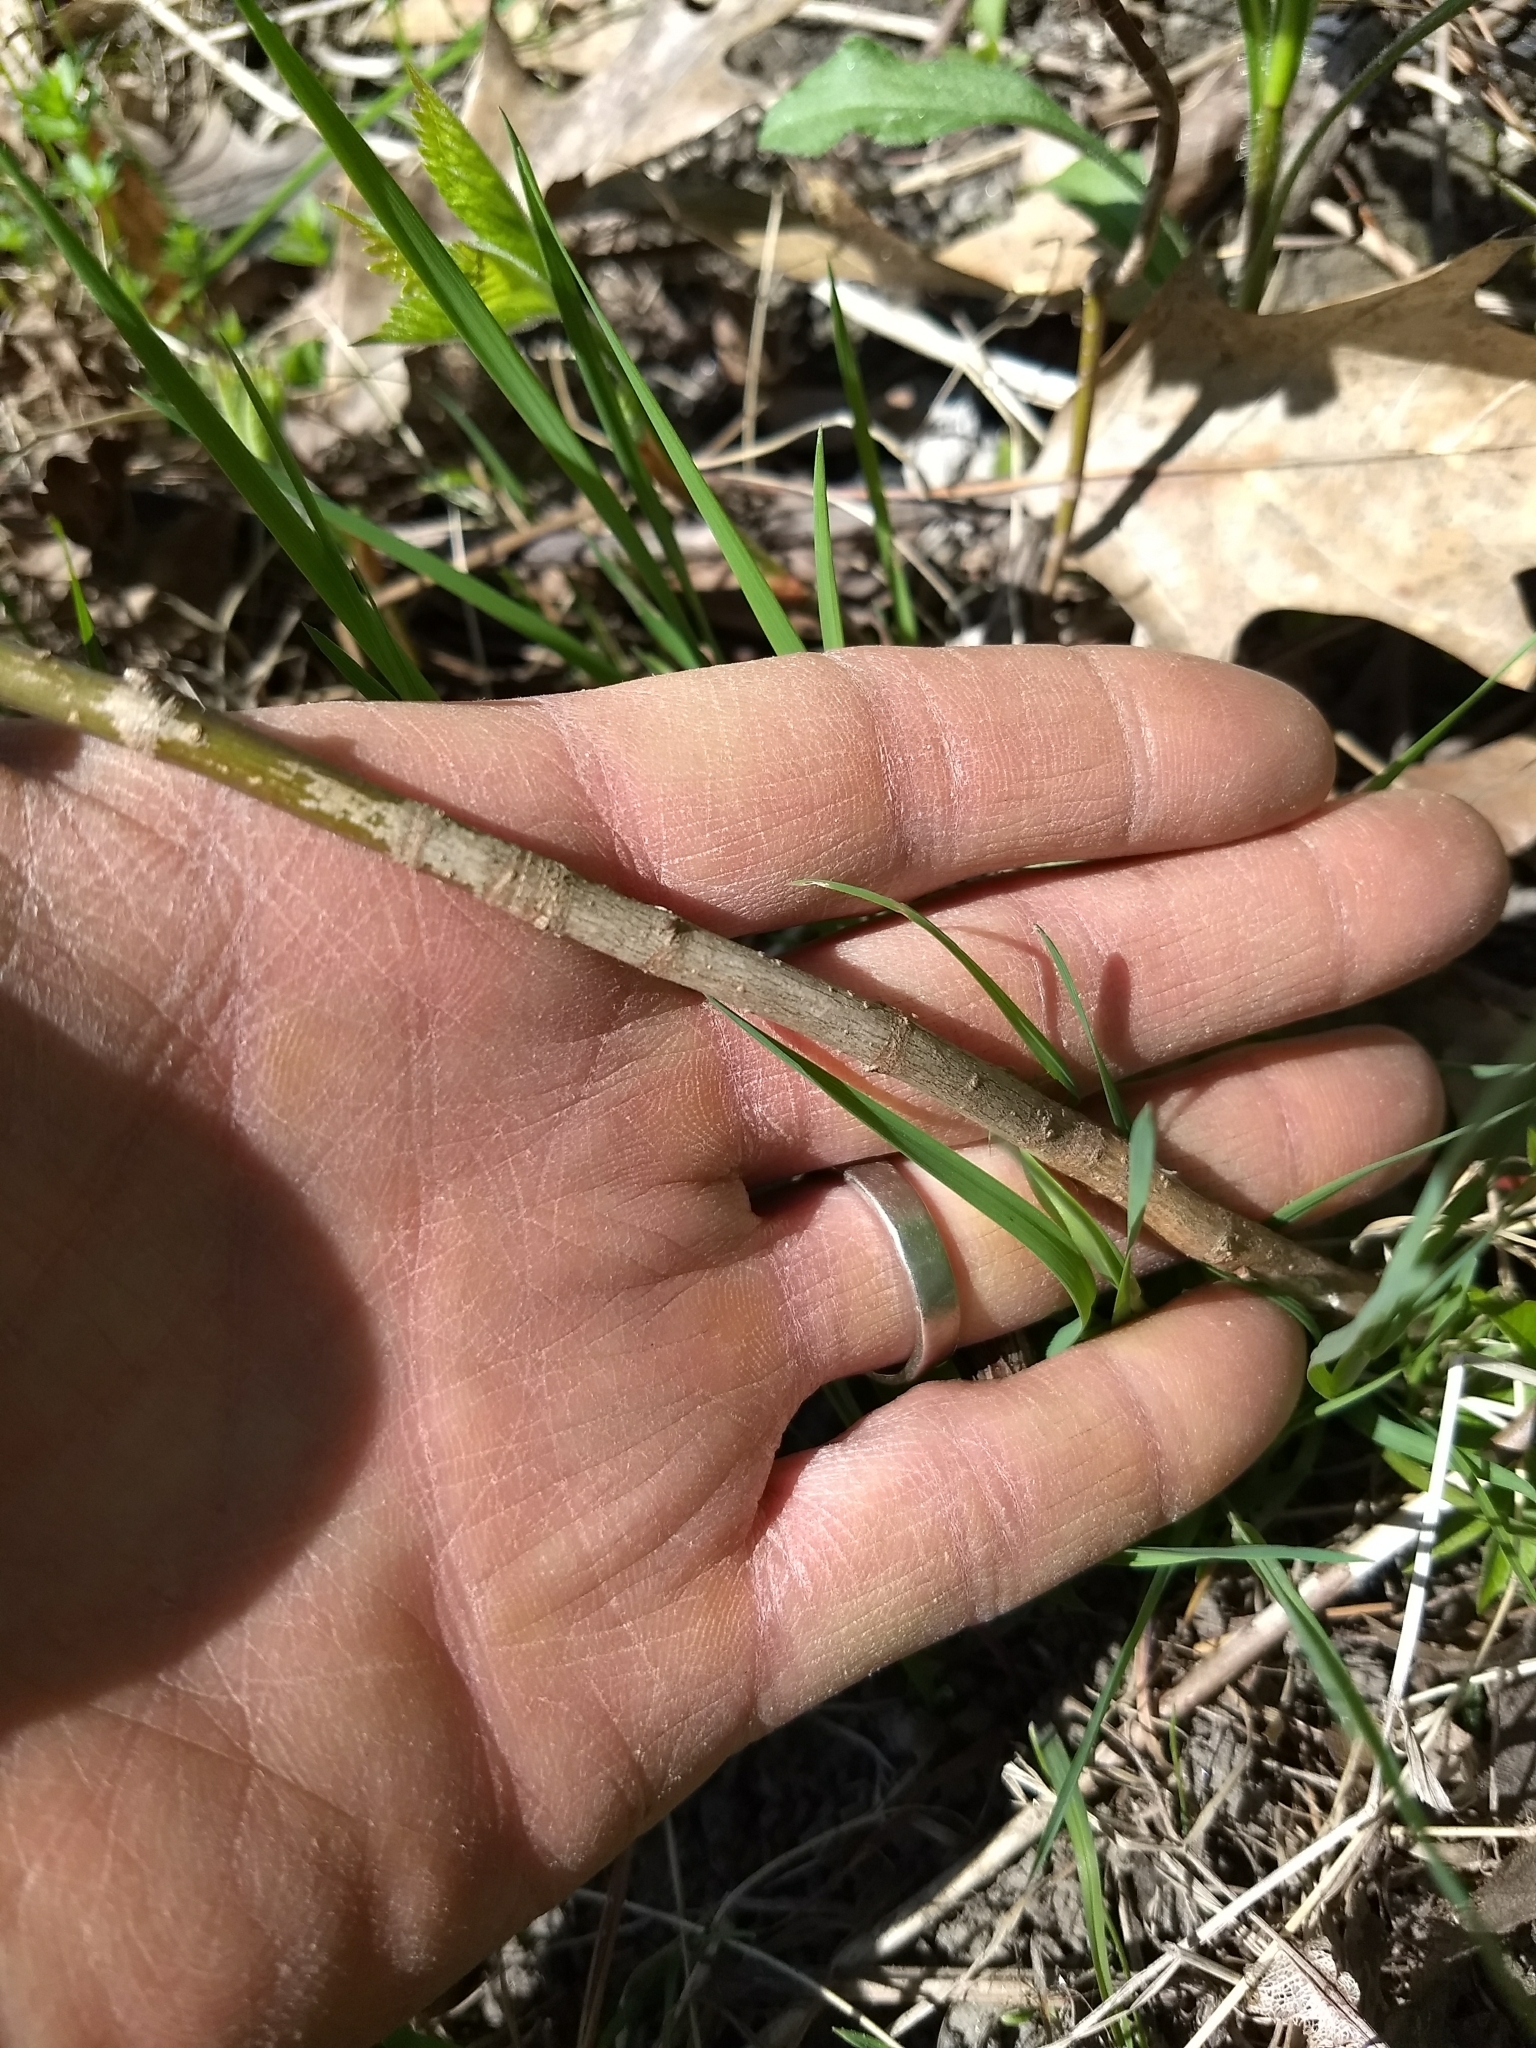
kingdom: Plantae
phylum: Tracheophyta
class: Magnoliopsida
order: Sapindales
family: Sapindaceae
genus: Acer
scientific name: Acer negundo
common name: Ashleaf maple
